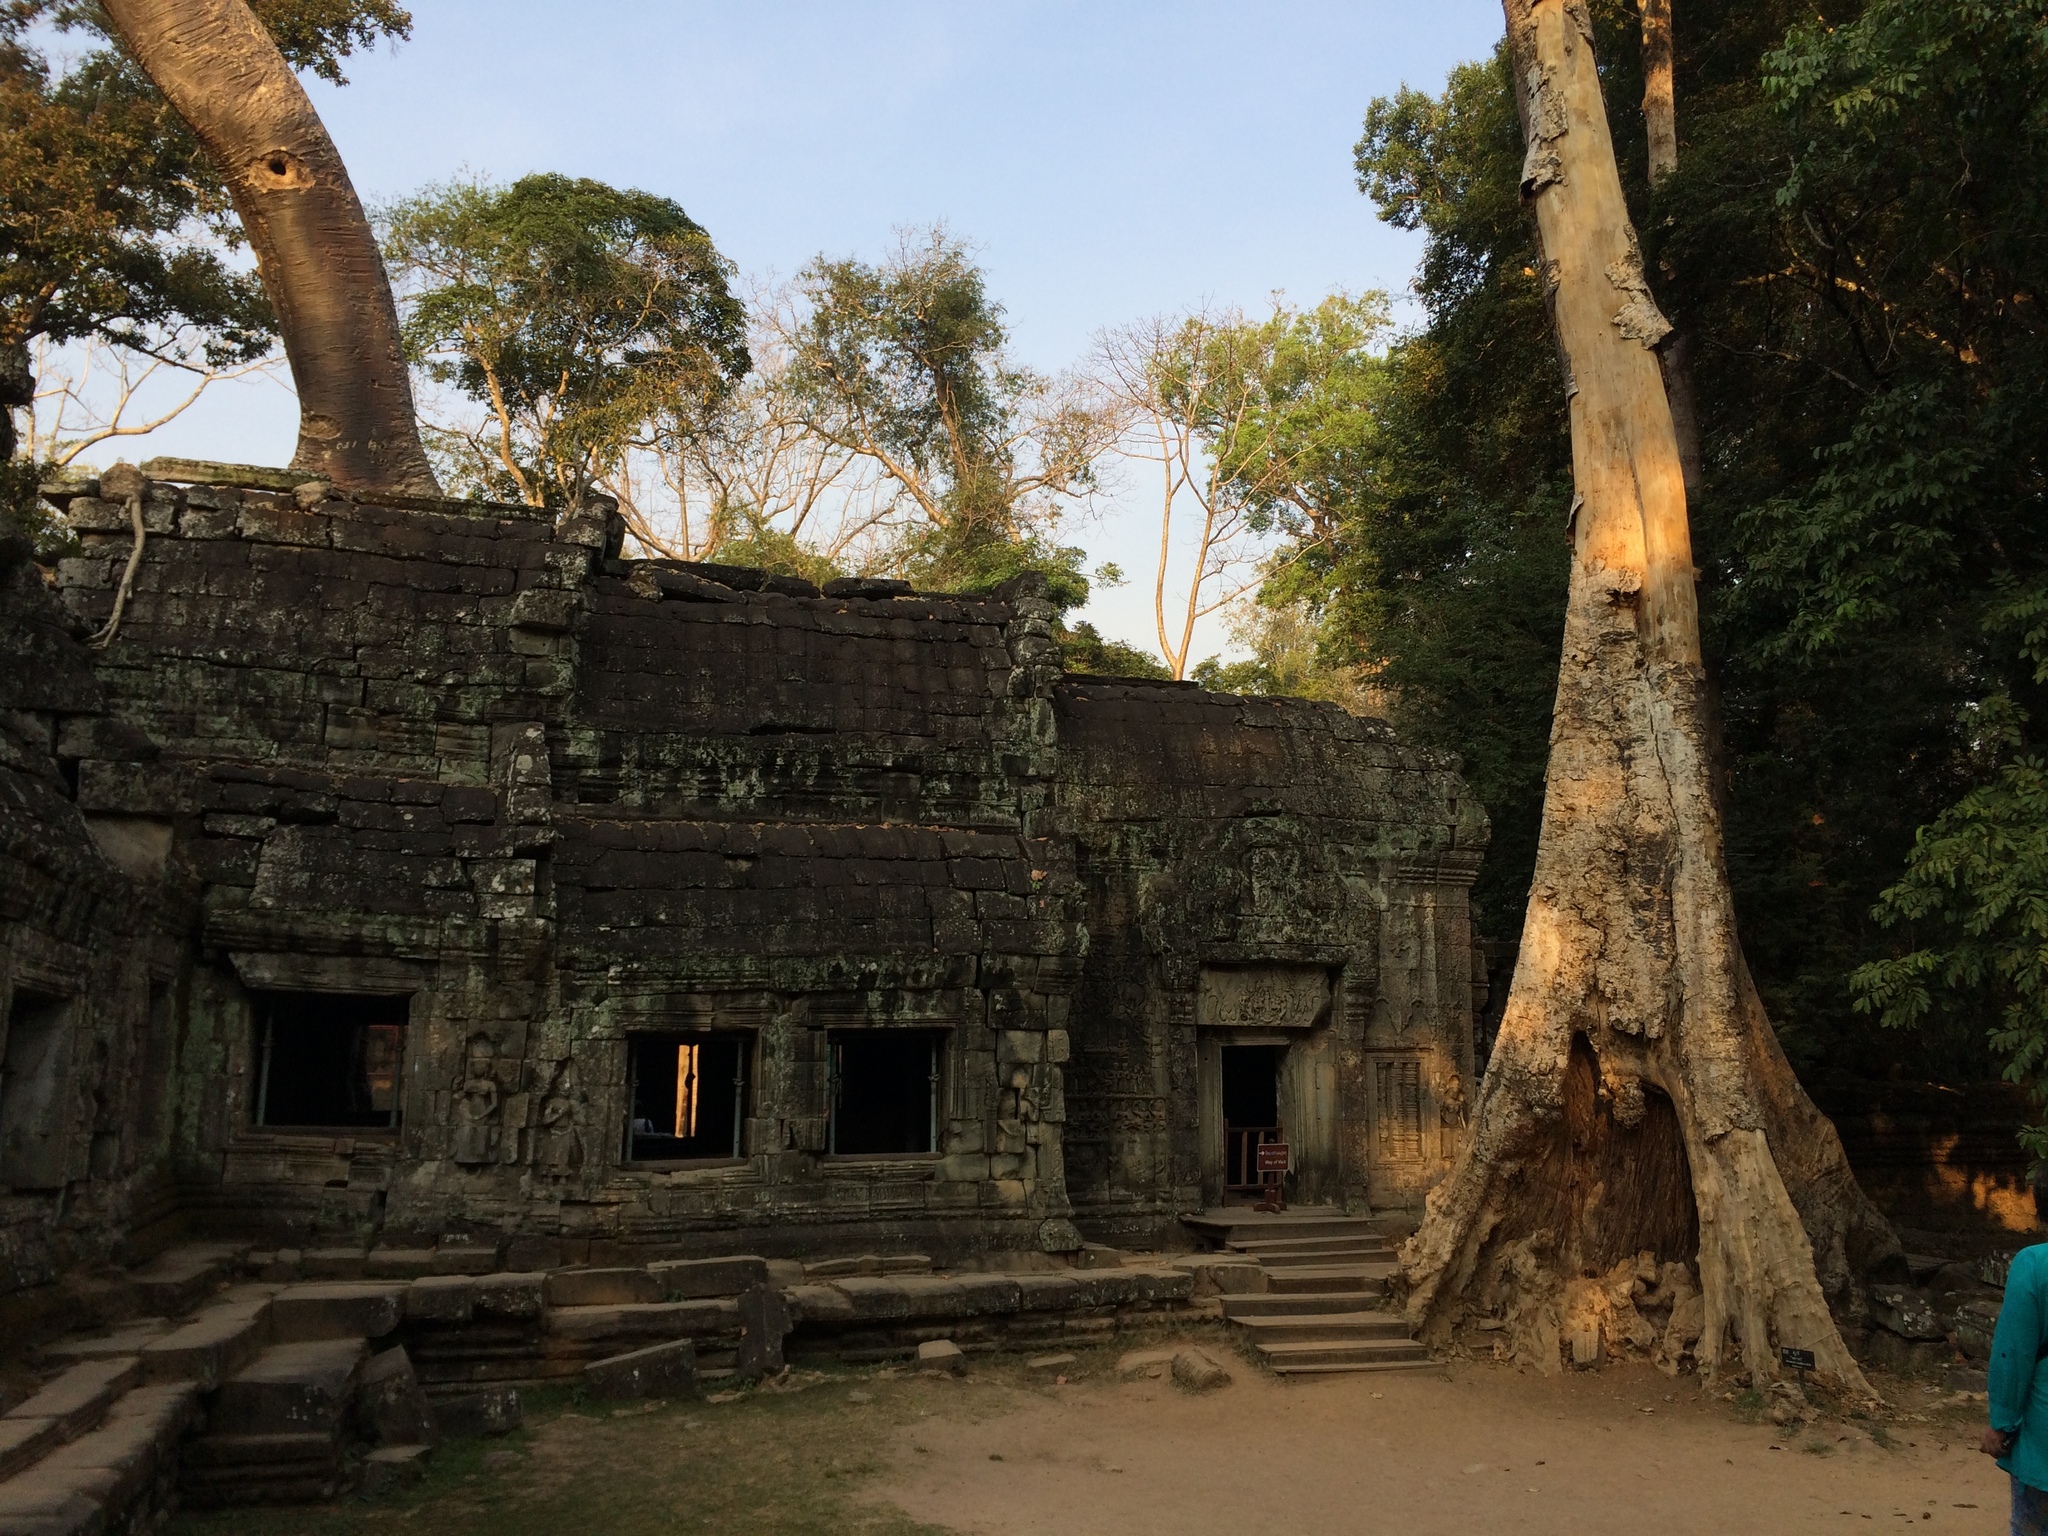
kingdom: Plantae
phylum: Tracheophyta
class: Magnoliopsida
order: Cucurbitales
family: Tetramelaceae
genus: Tetrameles
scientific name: Tetrameles nudiflora
